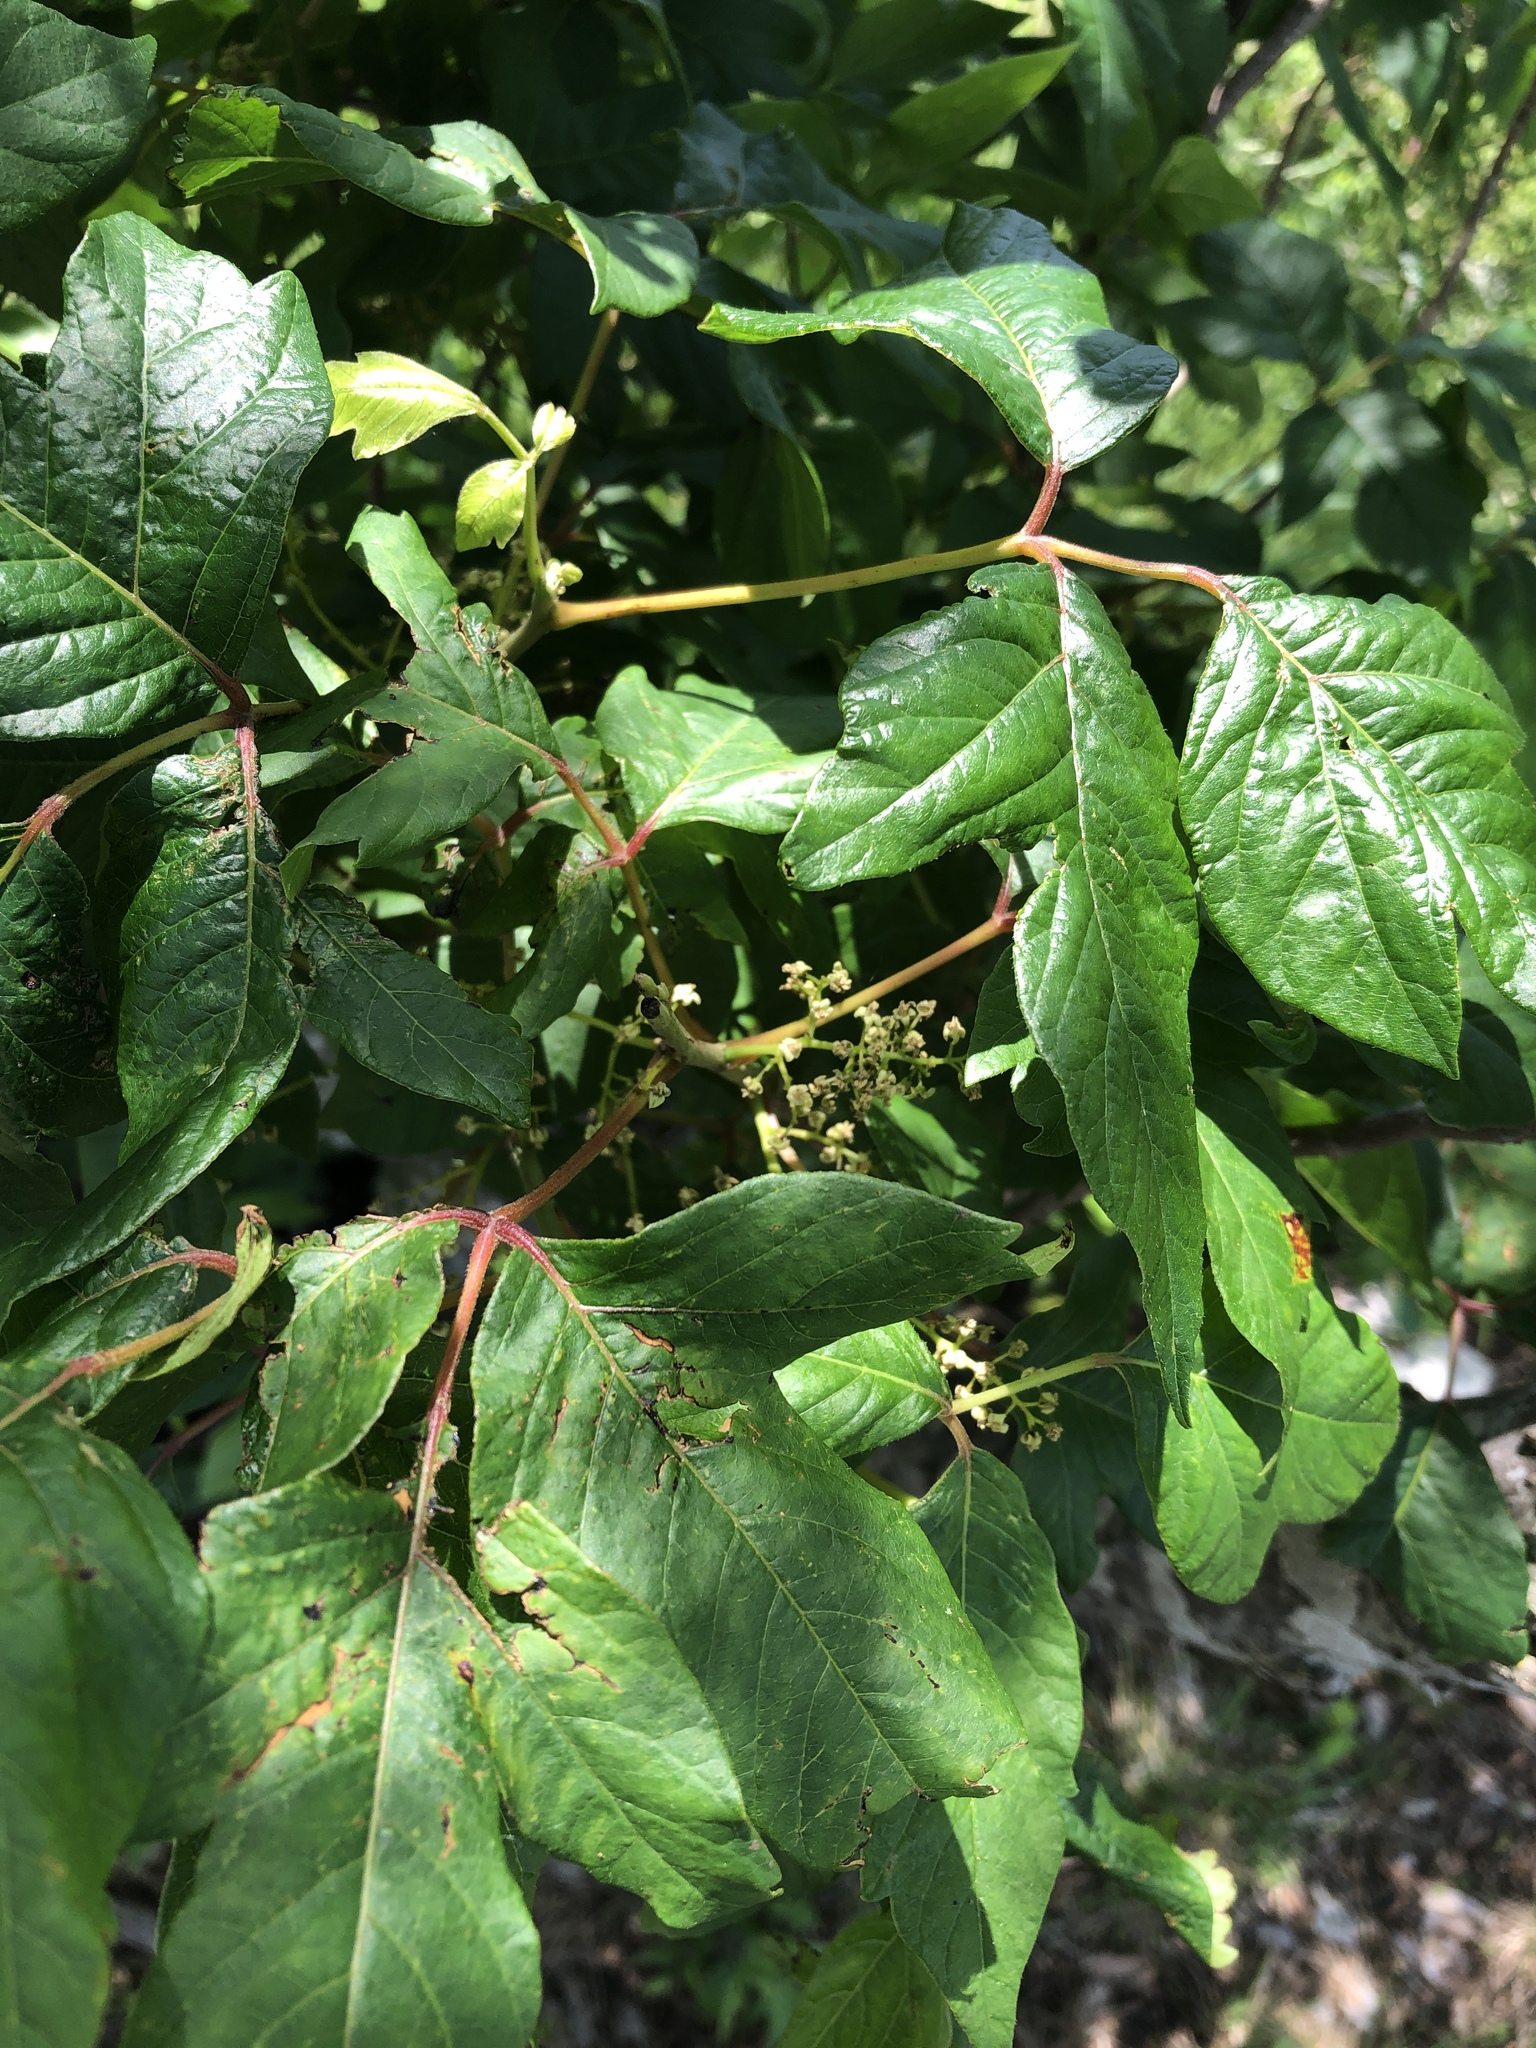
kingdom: Plantae
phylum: Tracheophyta
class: Magnoliopsida
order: Sapindales
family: Anacardiaceae
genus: Toxicodendron
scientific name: Toxicodendron radicans
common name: Poison ivy
